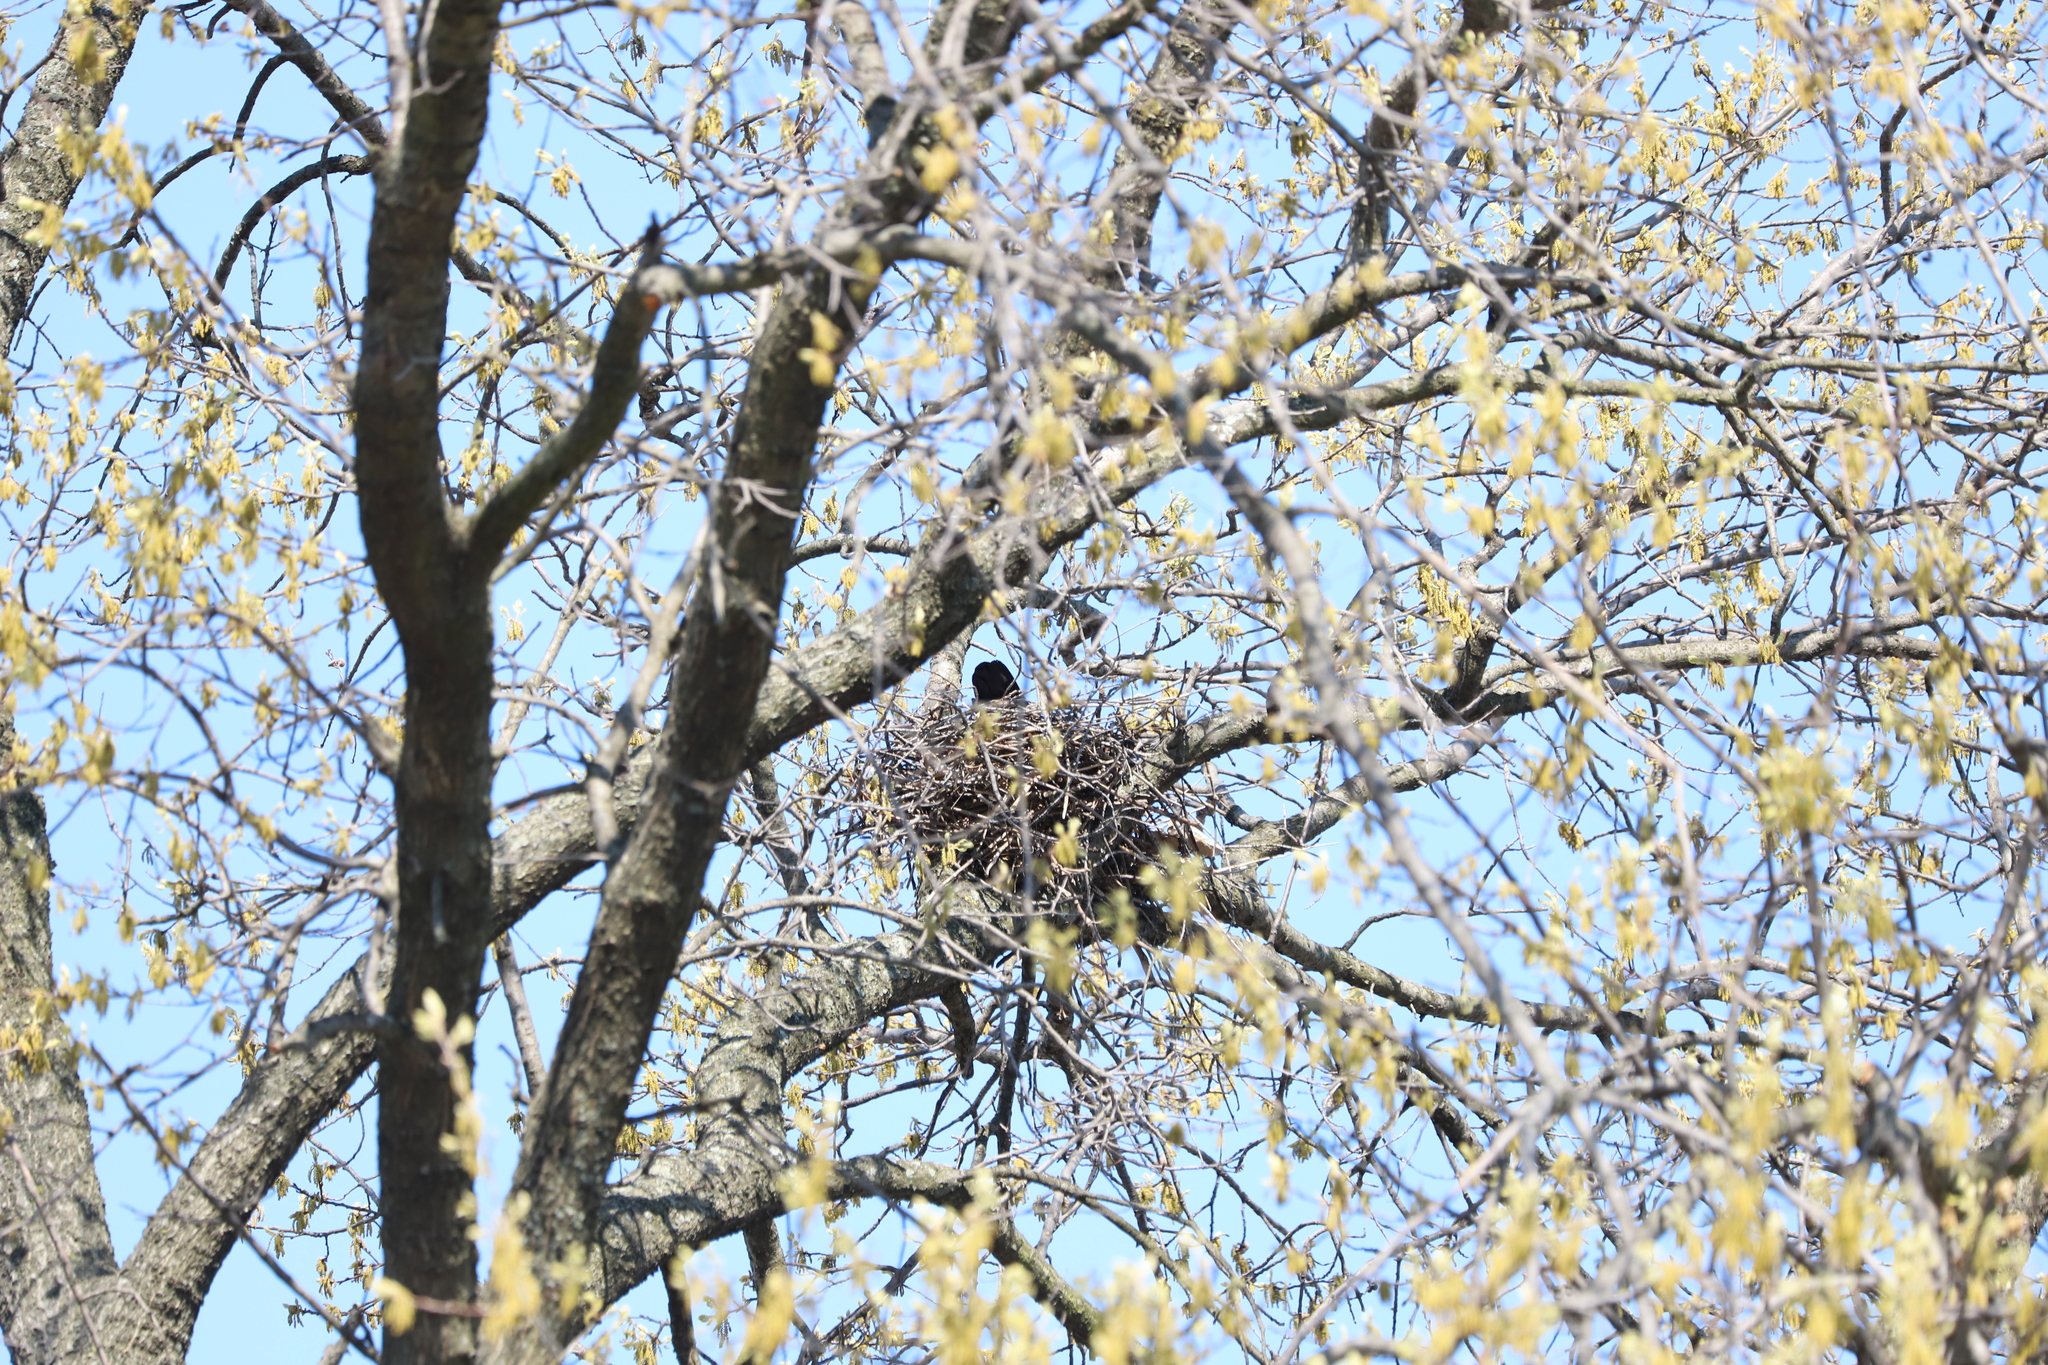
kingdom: Animalia
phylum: Chordata
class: Aves
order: Passeriformes
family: Corvidae
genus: Corvus
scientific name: Corvus brachyrhynchos
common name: American crow
